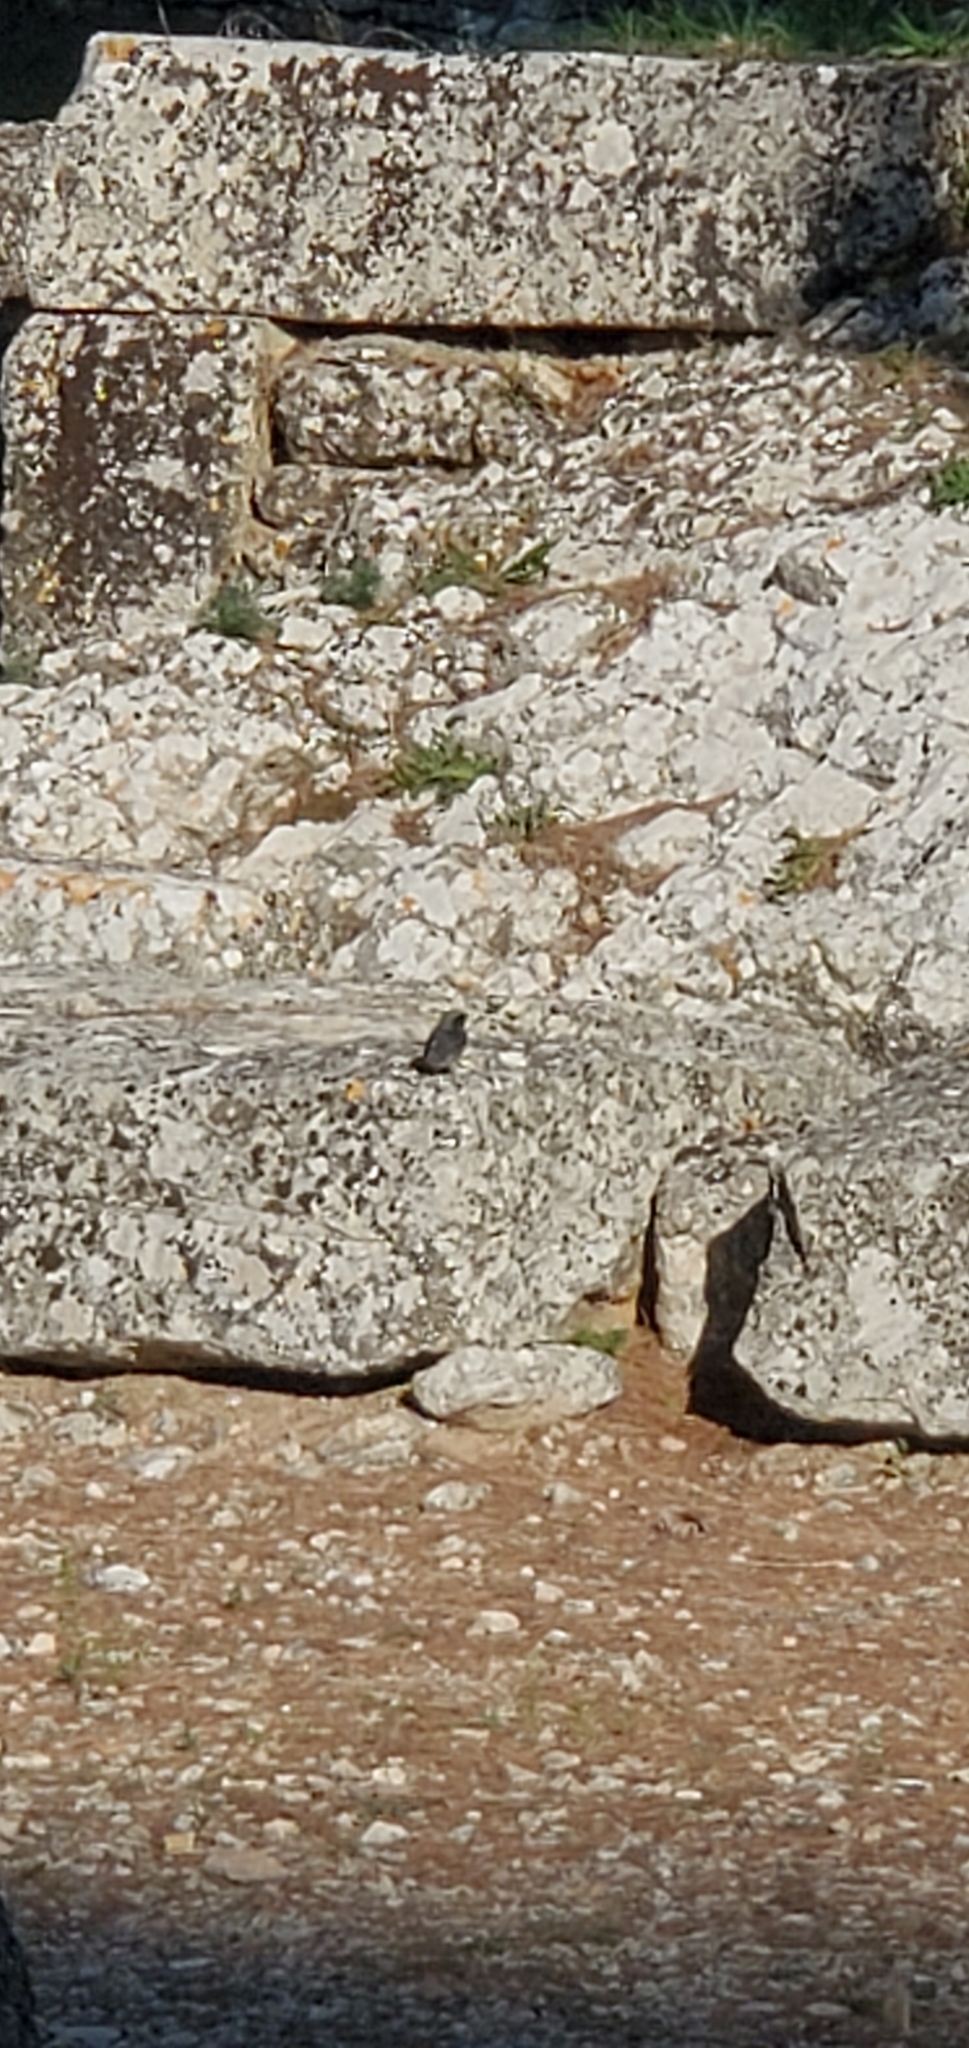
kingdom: Animalia
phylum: Chordata
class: Aves
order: Passeriformes
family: Muscicapidae
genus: Phoenicurus
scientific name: Phoenicurus ochruros
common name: Black redstart
